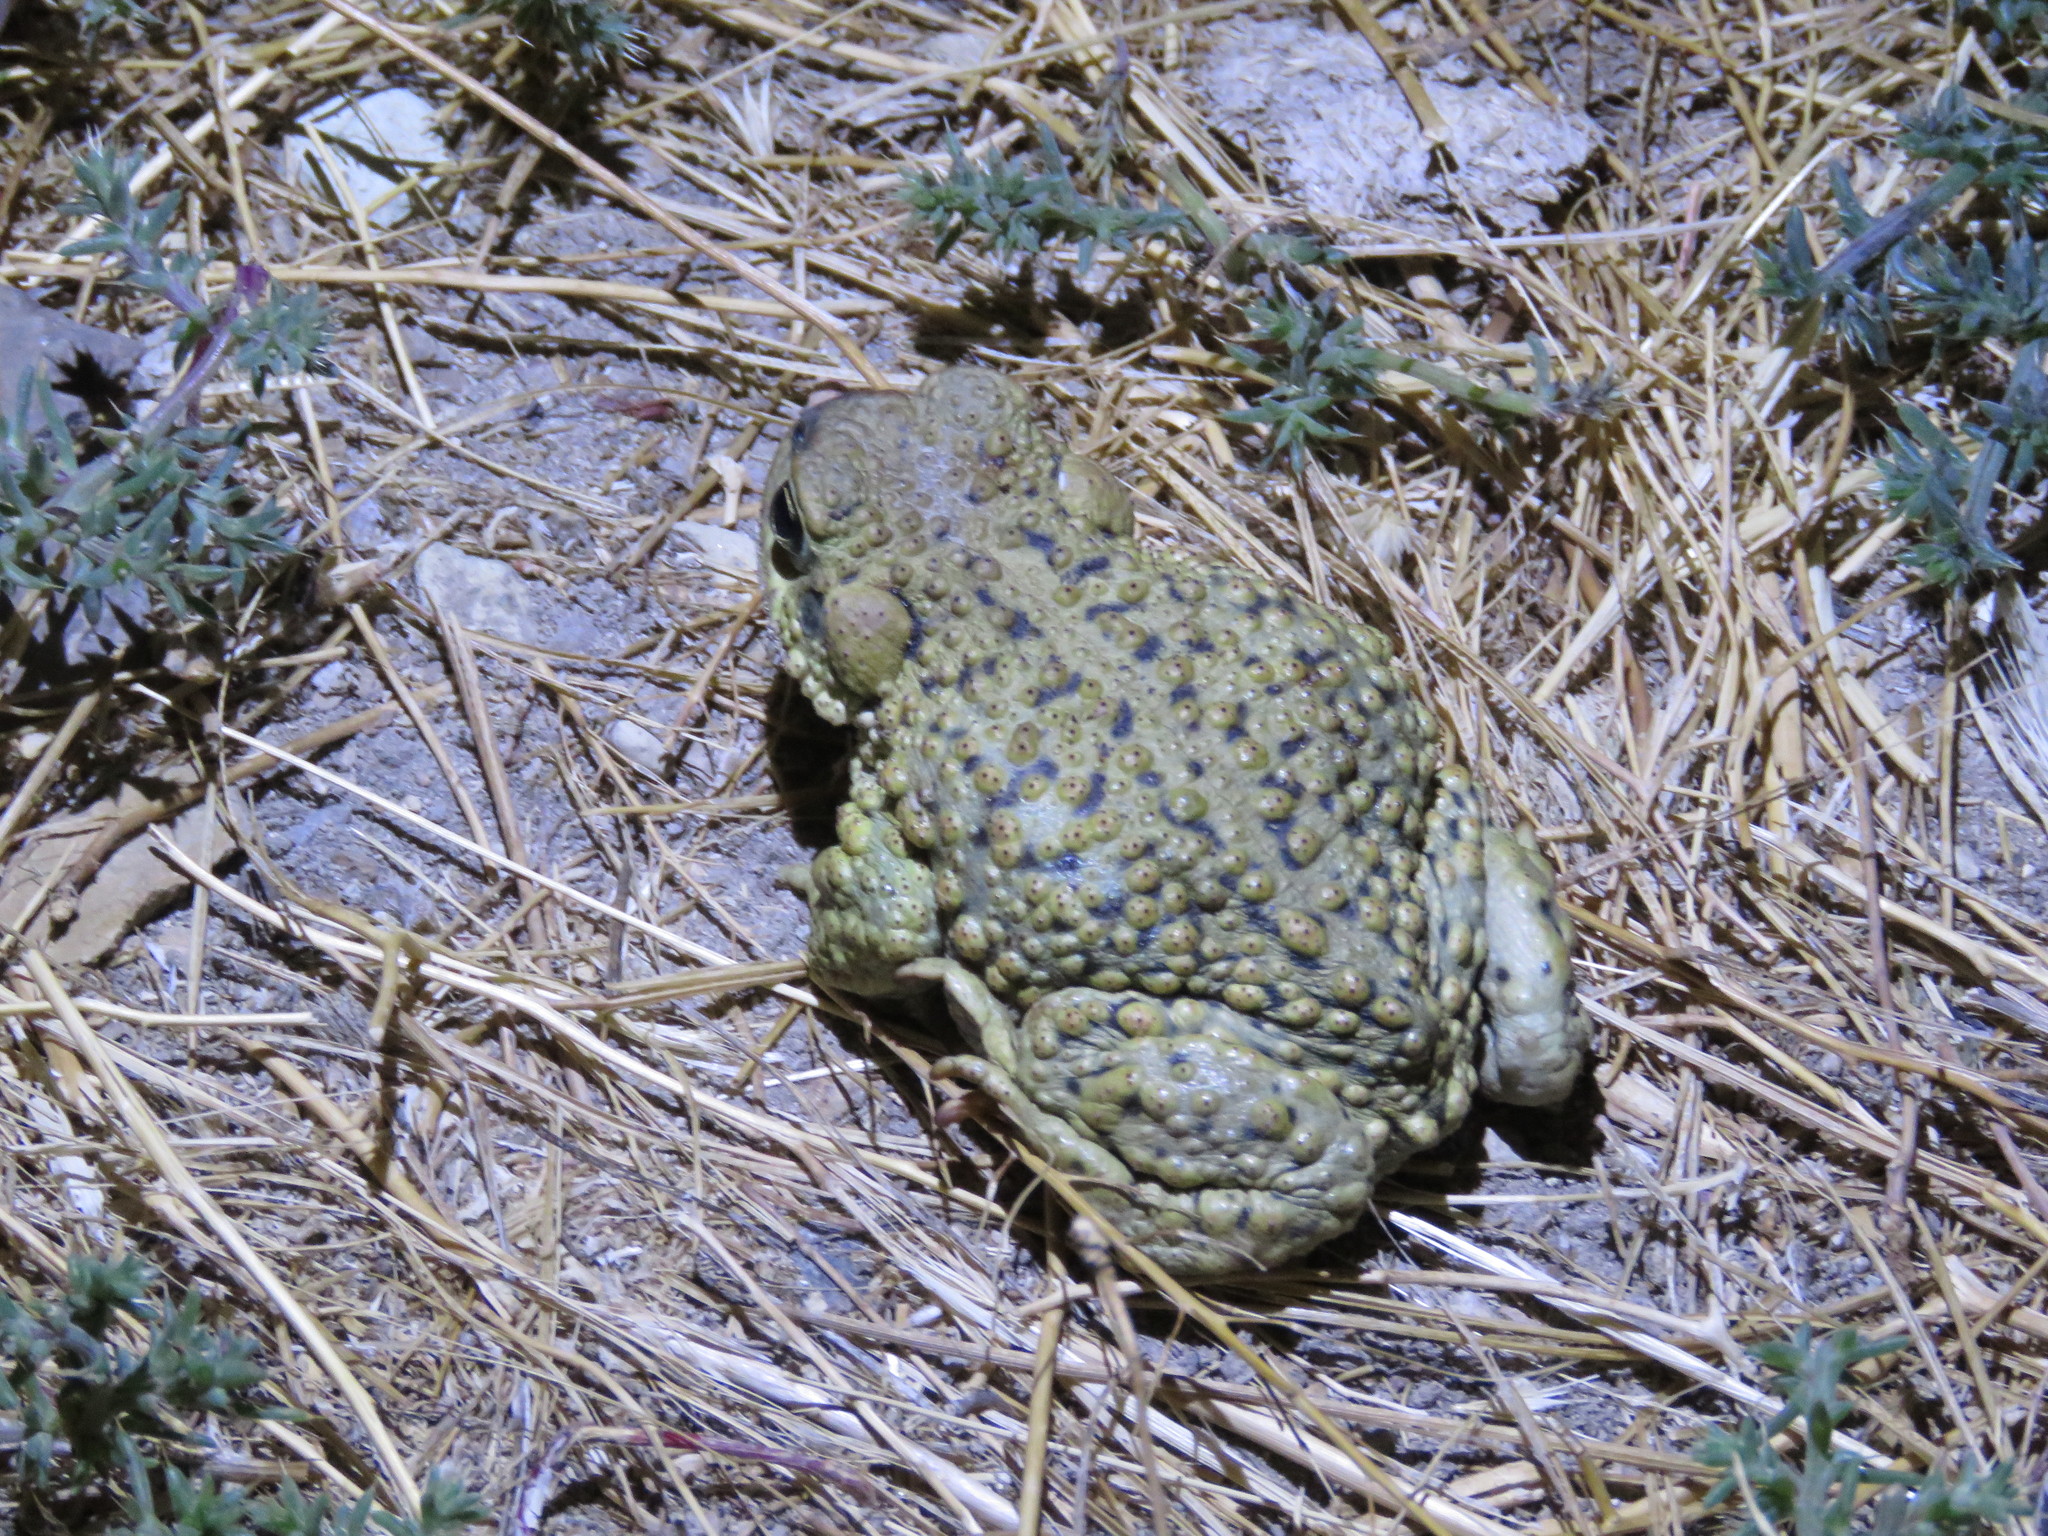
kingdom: Animalia
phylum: Chordata
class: Amphibia
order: Anura
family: Bufonidae
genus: Rhinella
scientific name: Rhinella spinulosa
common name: Warty toad
